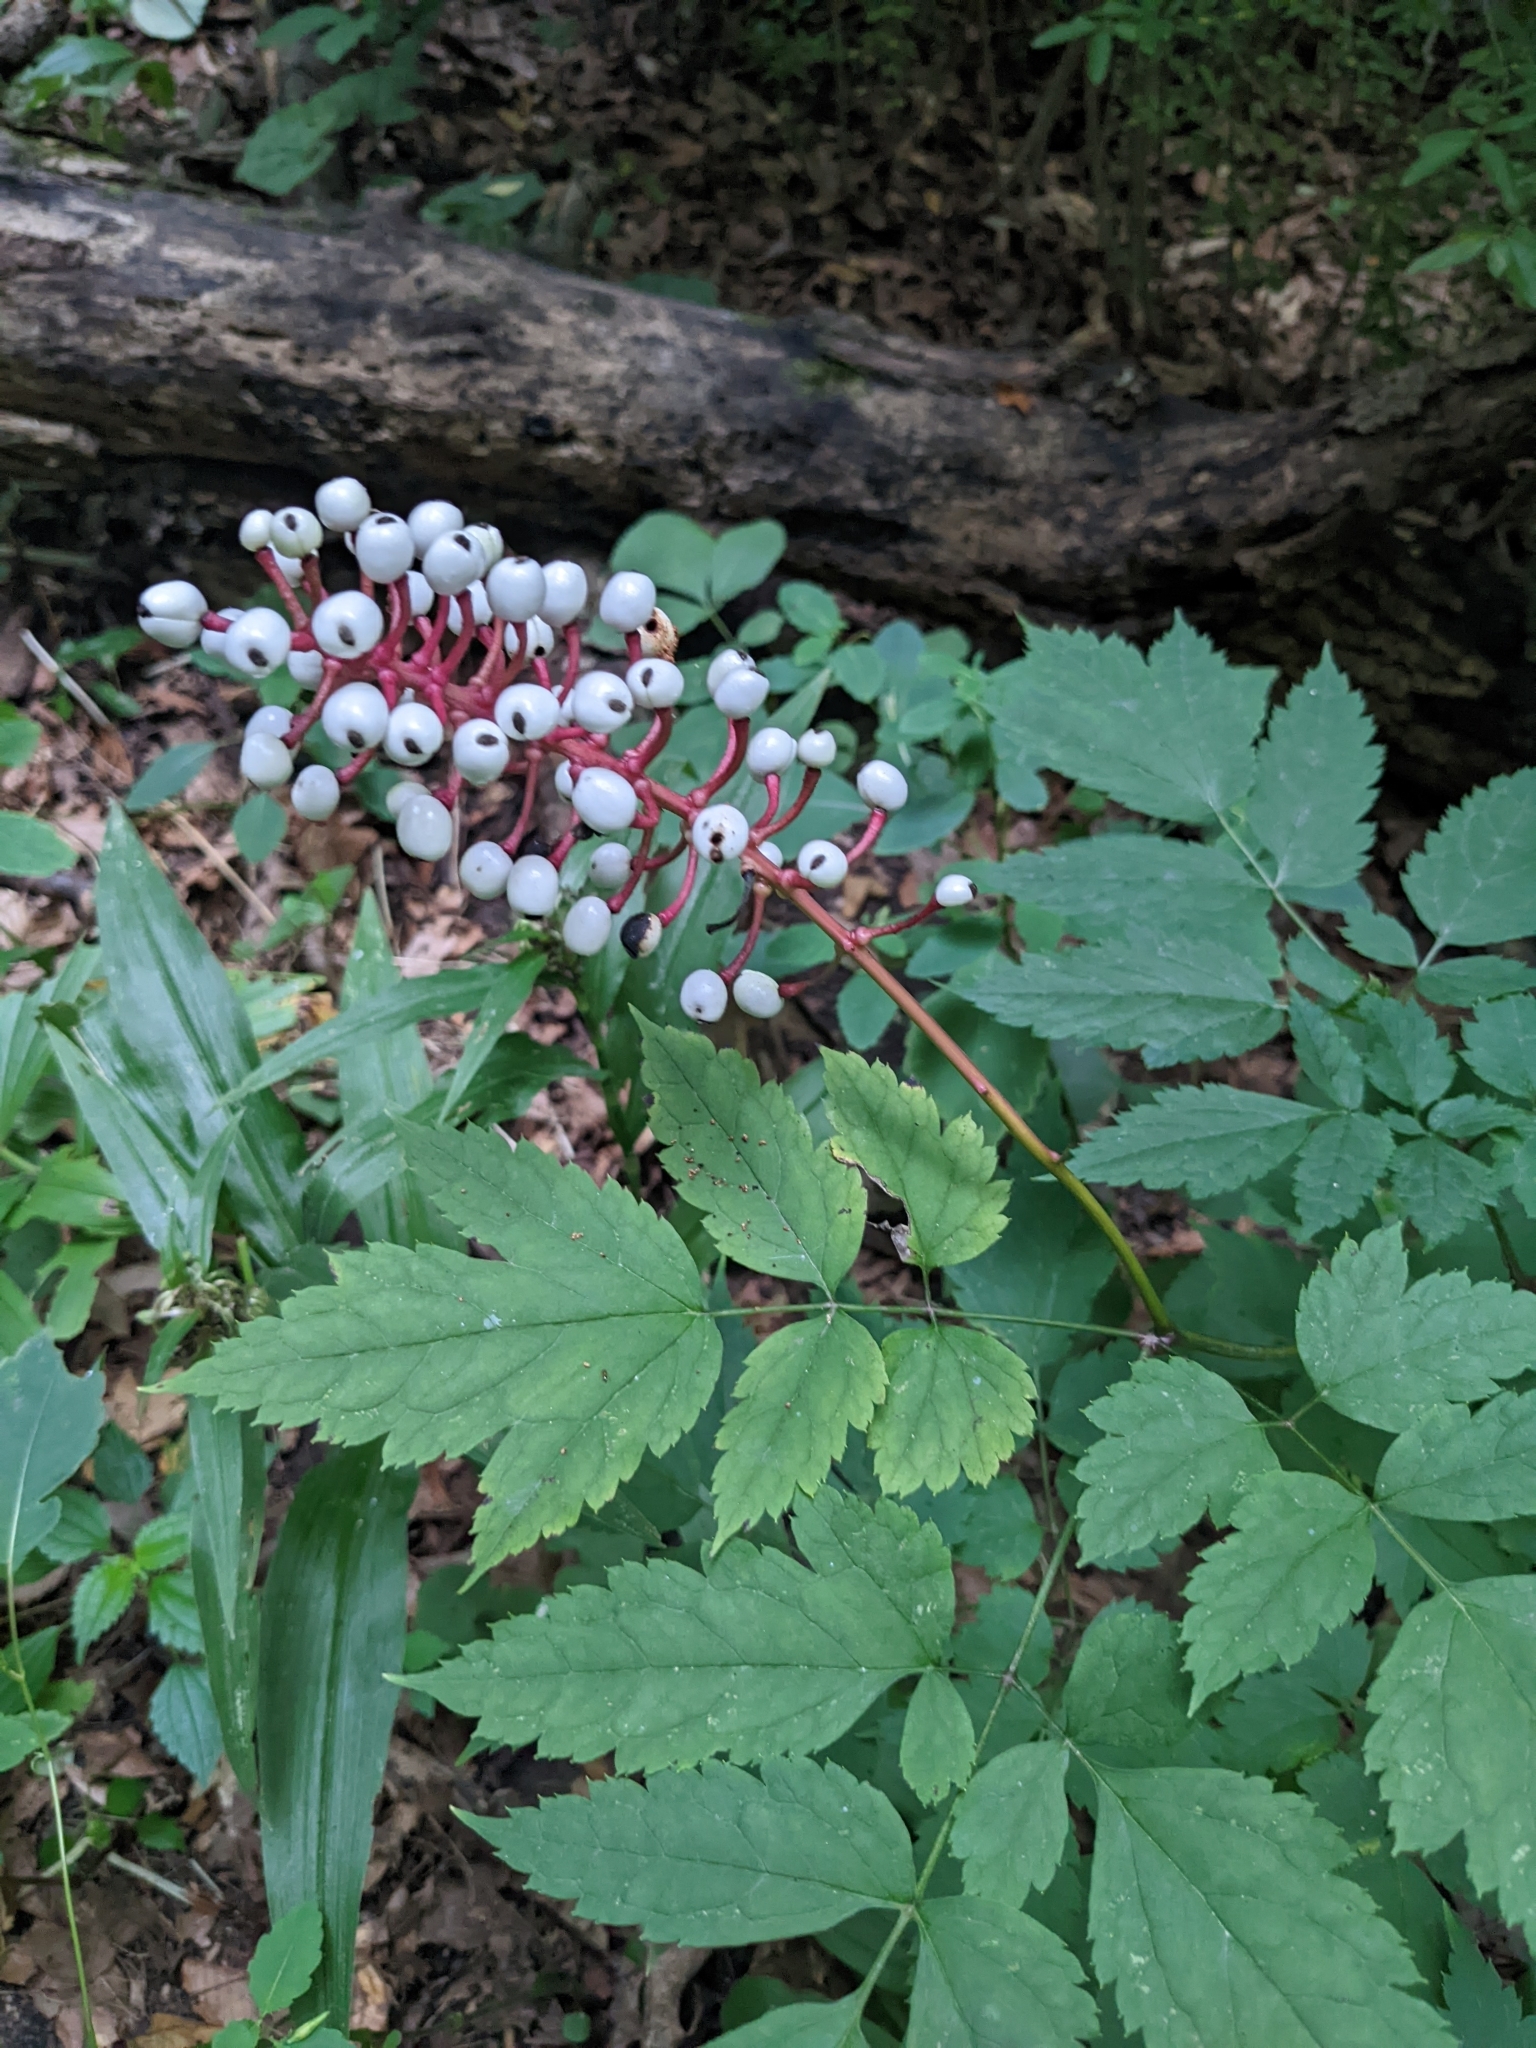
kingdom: Plantae
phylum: Tracheophyta
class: Magnoliopsida
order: Ranunculales
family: Ranunculaceae
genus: Actaea
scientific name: Actaea pachypoda
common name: Doll's-eyes
